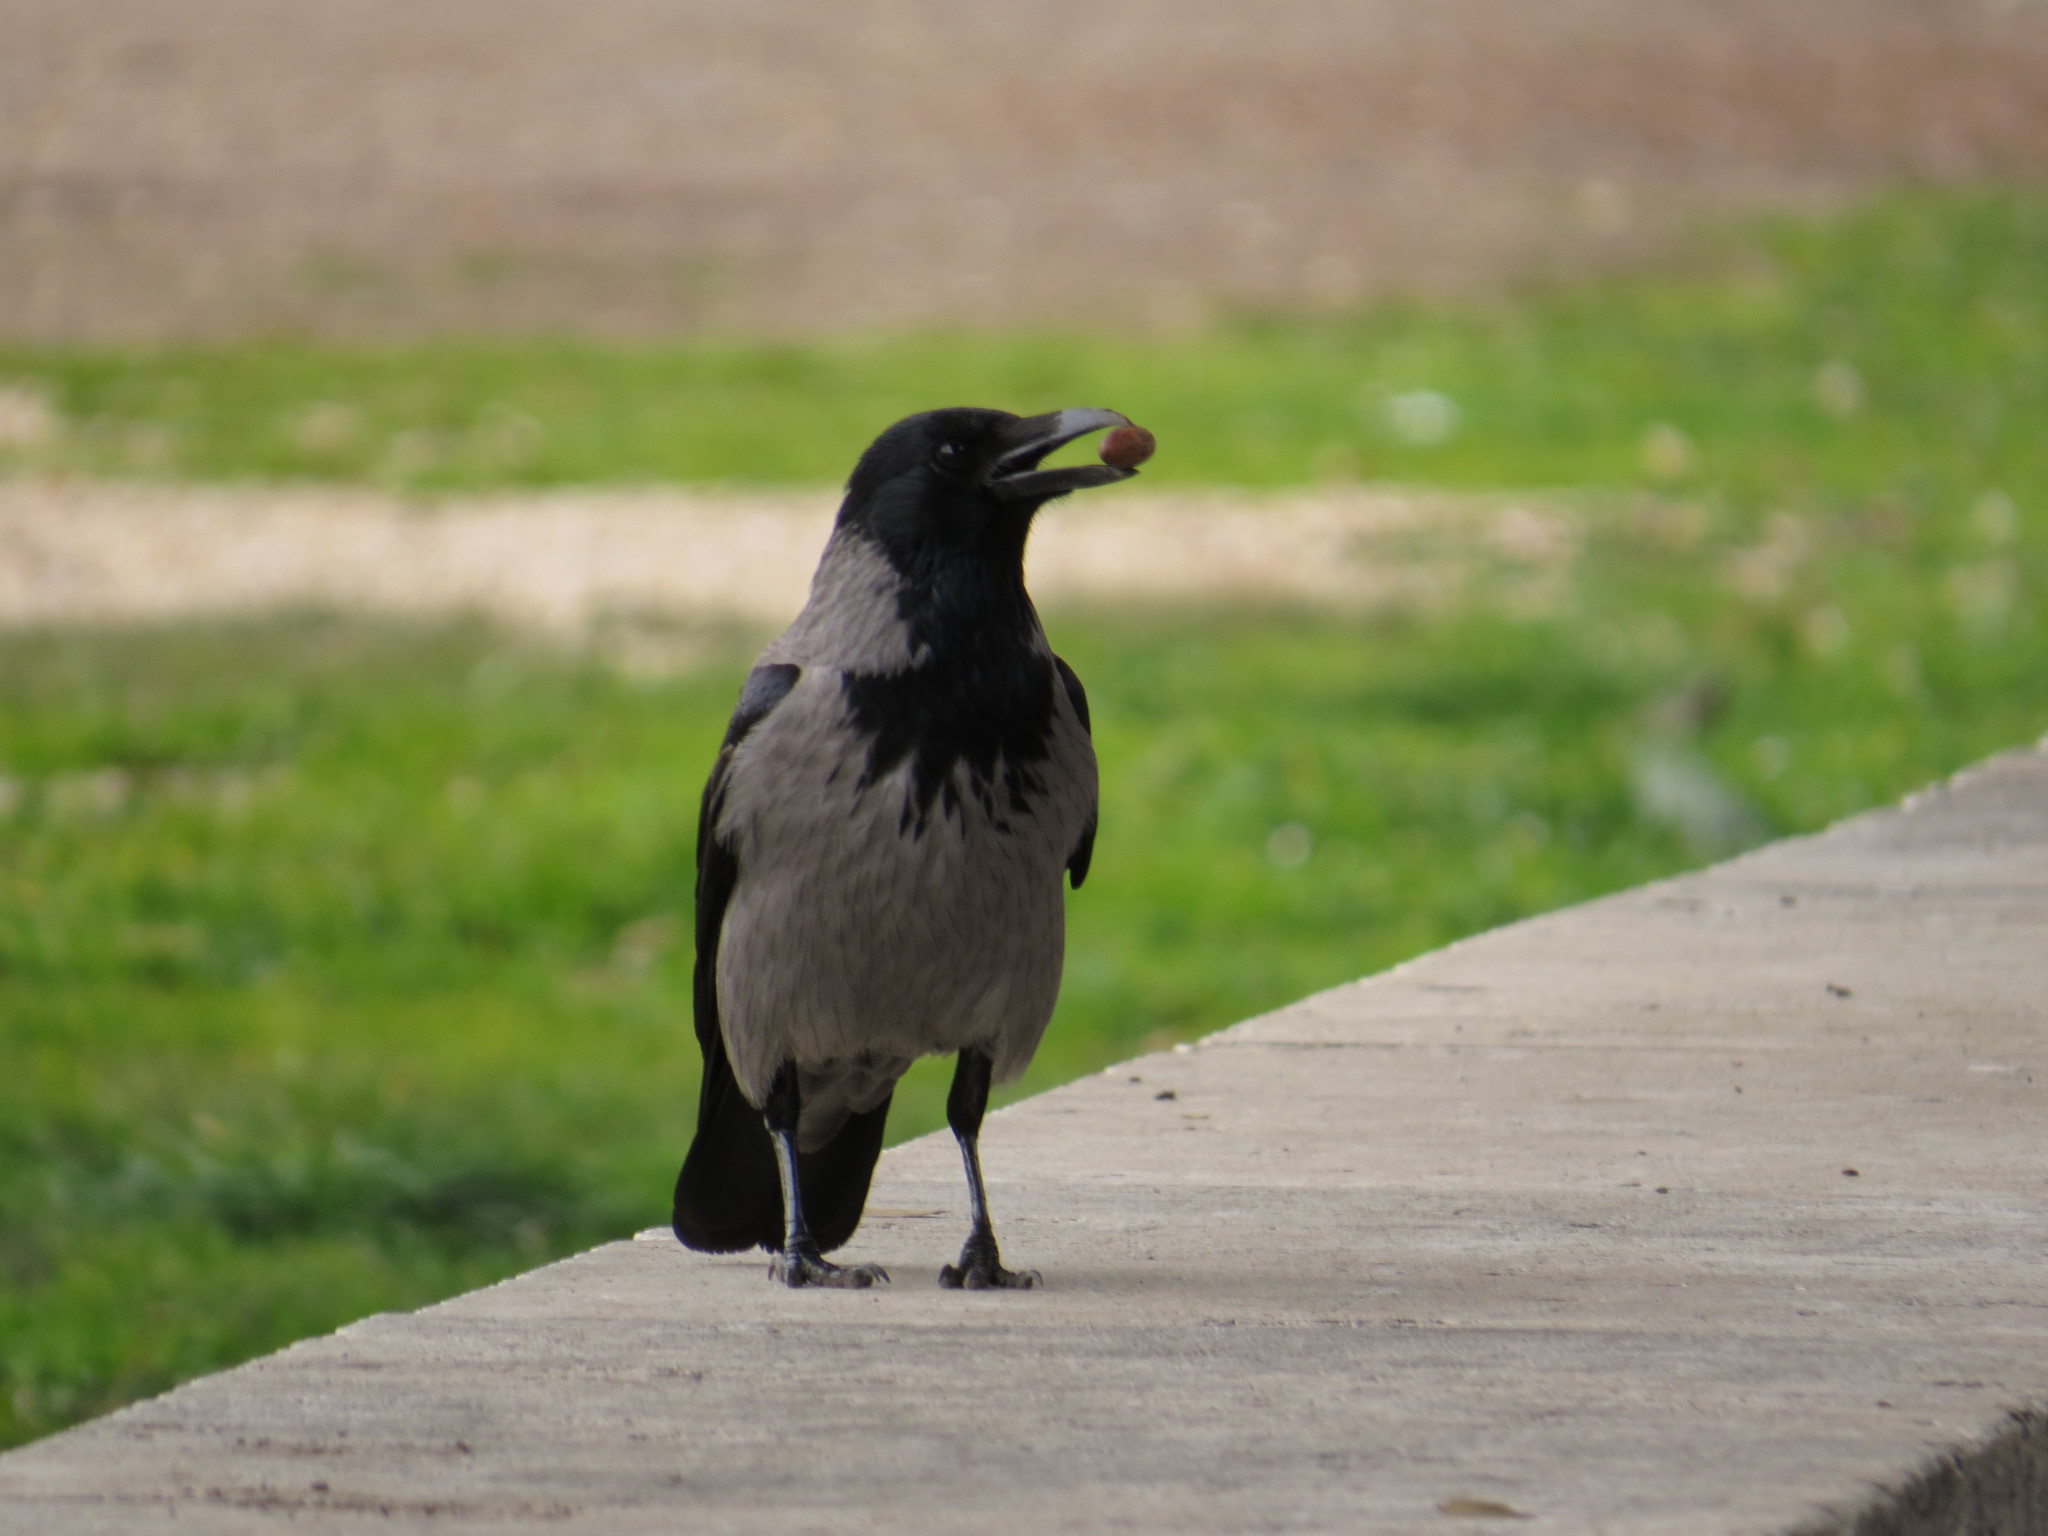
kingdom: Animalia
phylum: Chordata
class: Aves
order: Passeriformes
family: Corvidae
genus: Corvus
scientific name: Corvus cornix
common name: Hooded crow
